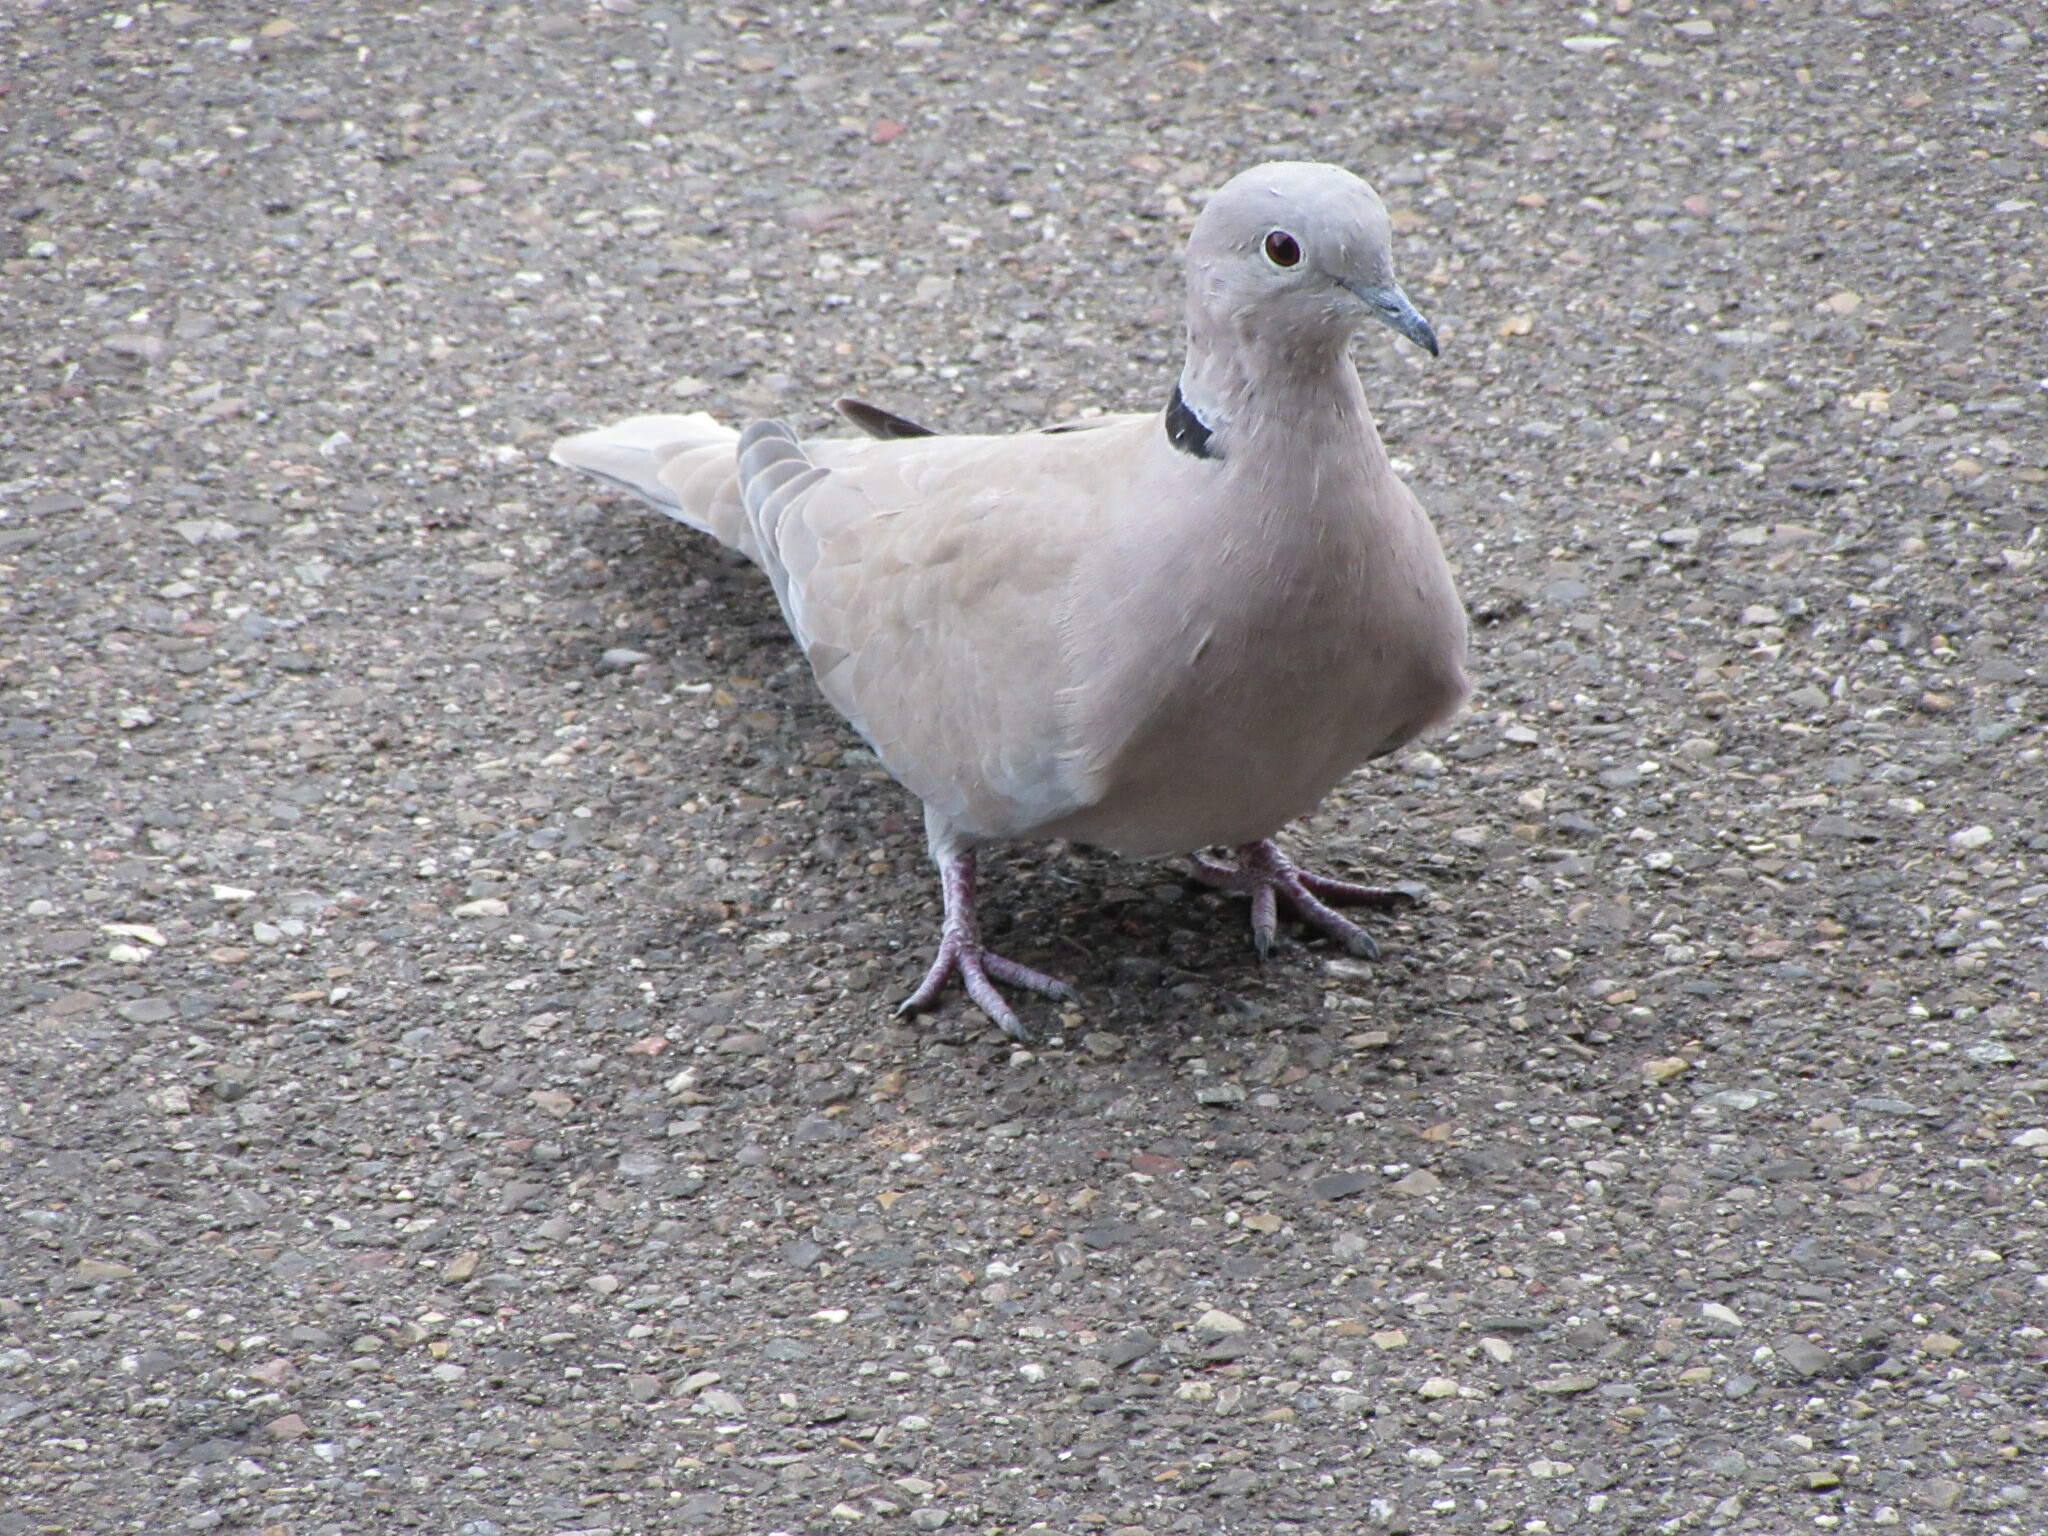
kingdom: Animalia
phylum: Chordata
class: Aves
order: Columbiformes
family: Columbidae
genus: Streptopelia
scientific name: Streptopelia decaocto
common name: Eurasian collared dove
